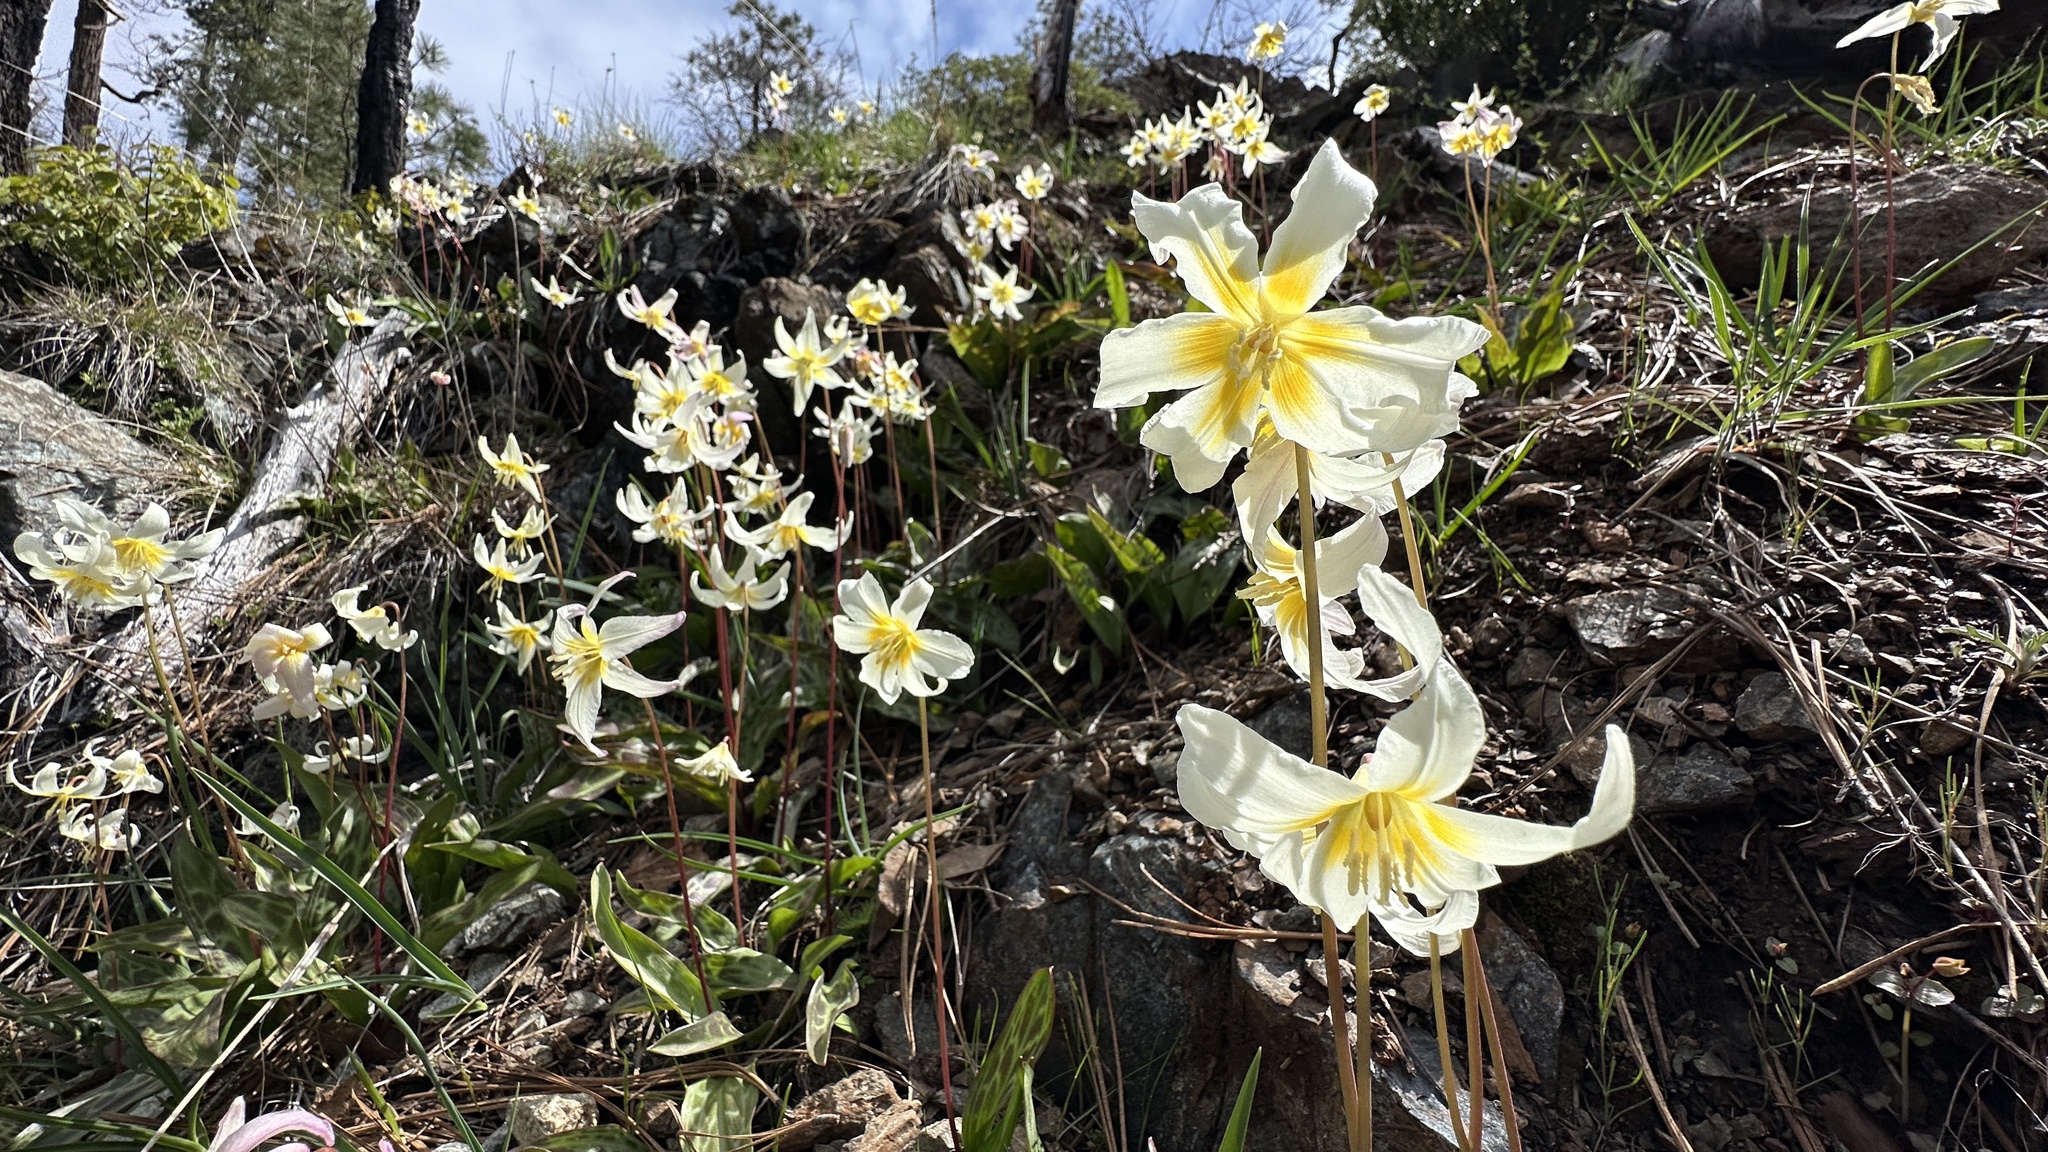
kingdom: Plantae
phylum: Tracheophyta
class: Liliopsida
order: Liliales
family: Liliaceae
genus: Erythronium
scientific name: Erythronium citrinum
